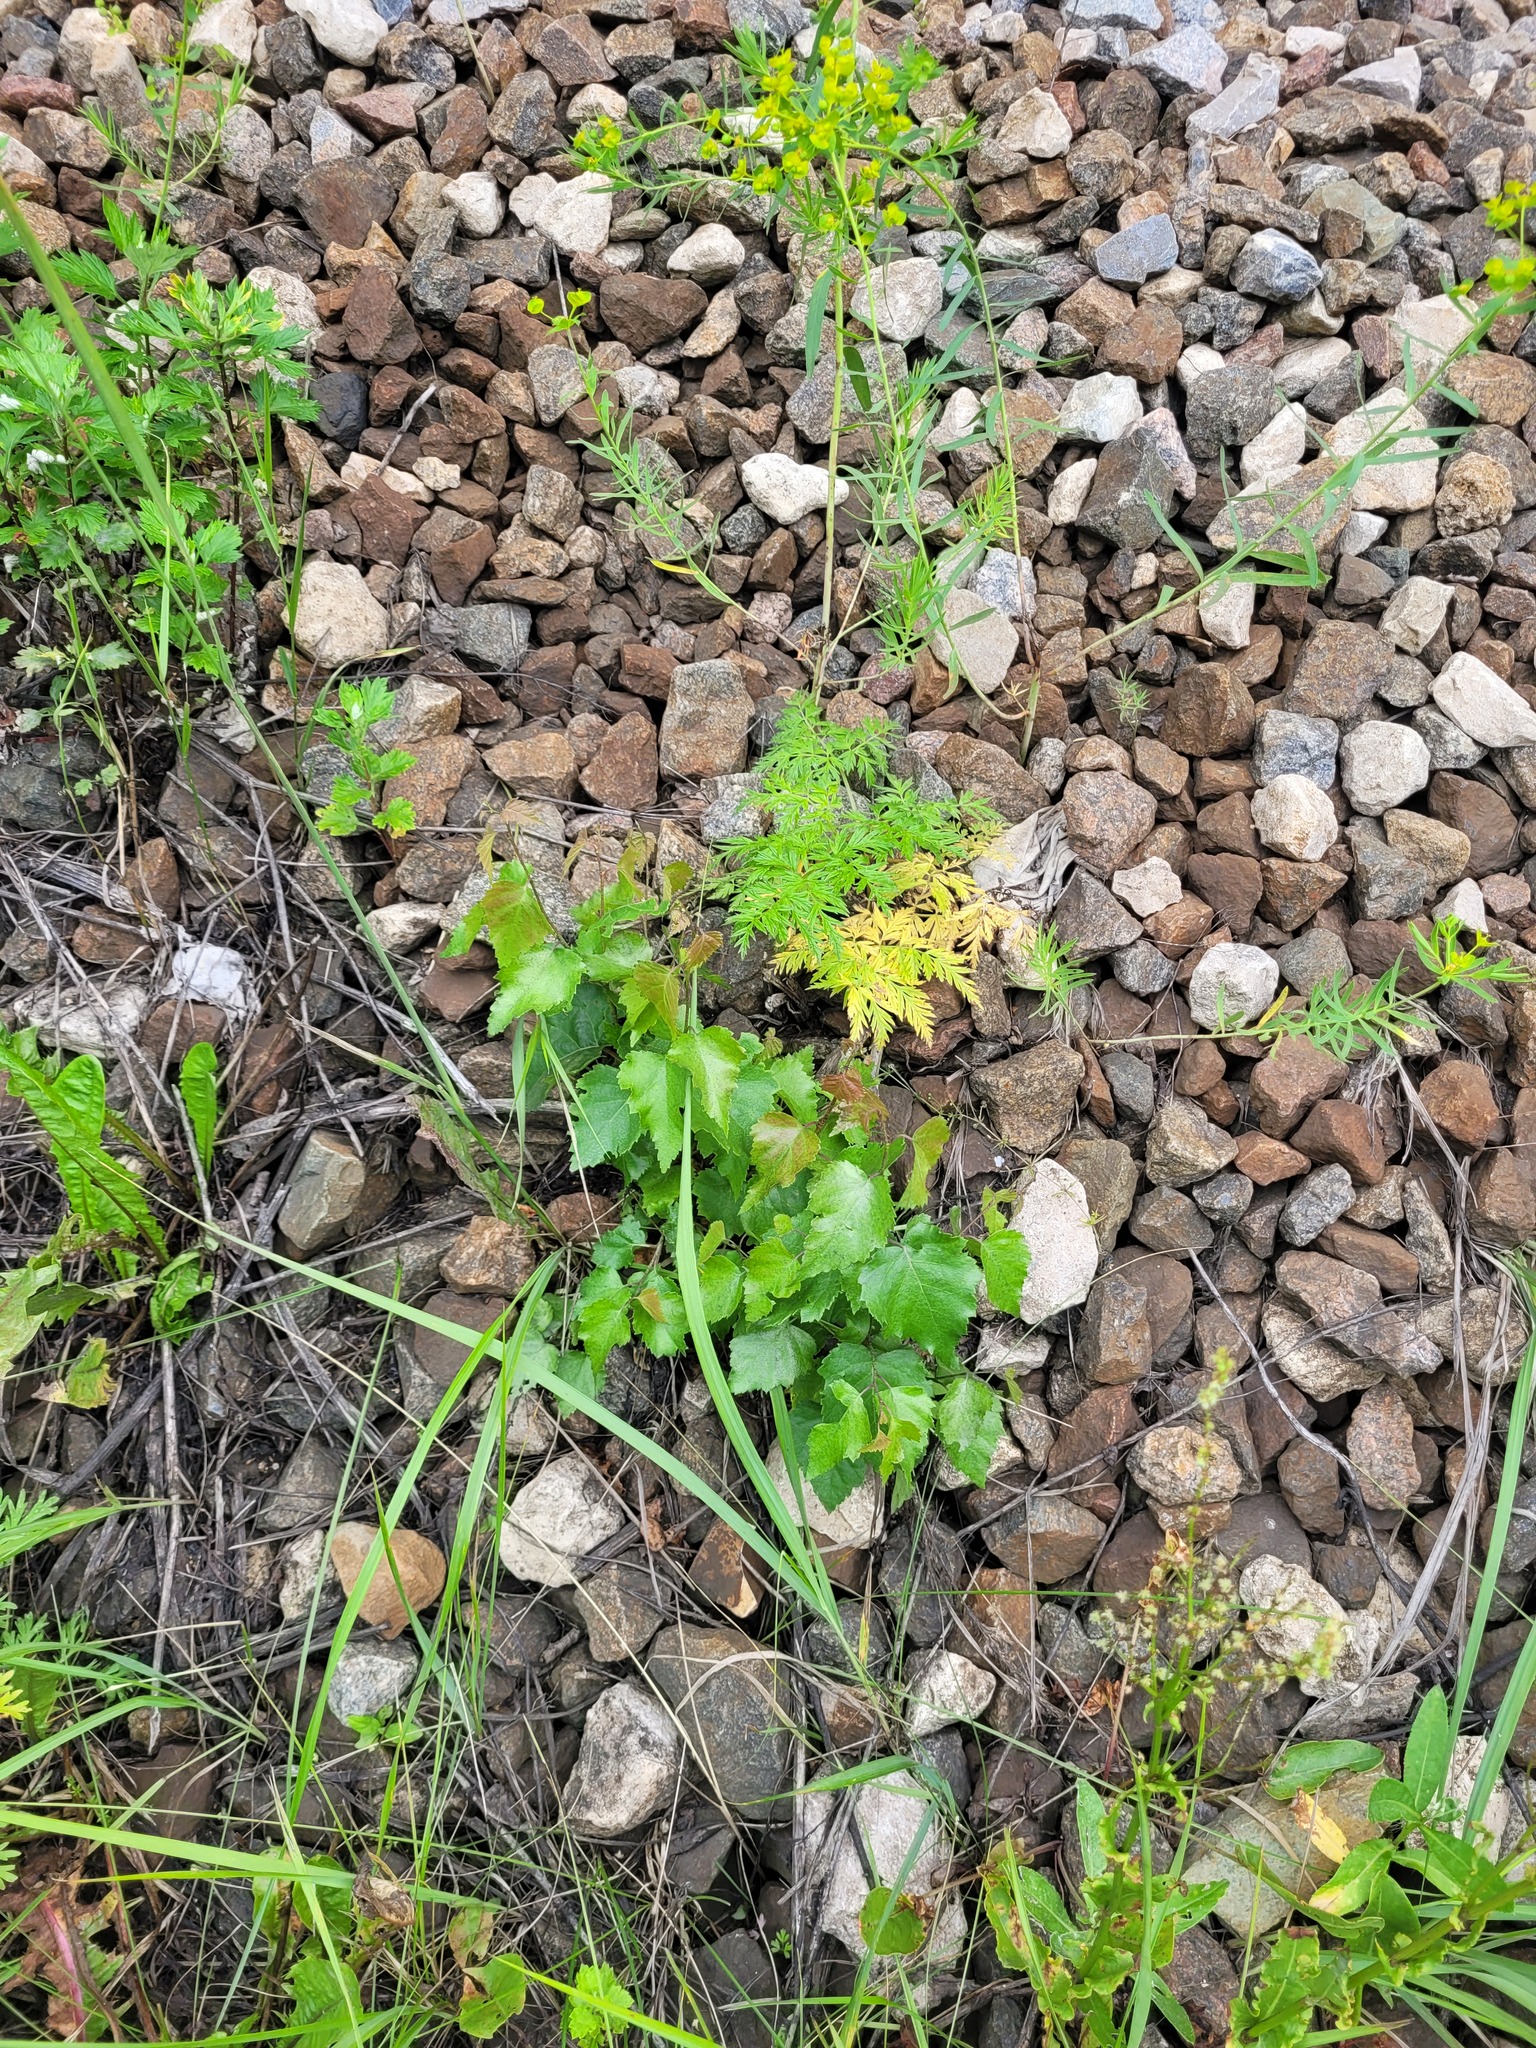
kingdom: Plantae
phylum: Tracheophyta
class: Magnoliopsida
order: Fagales
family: Betulaceae
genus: Betula
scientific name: Betula pendula
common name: Silver birch
